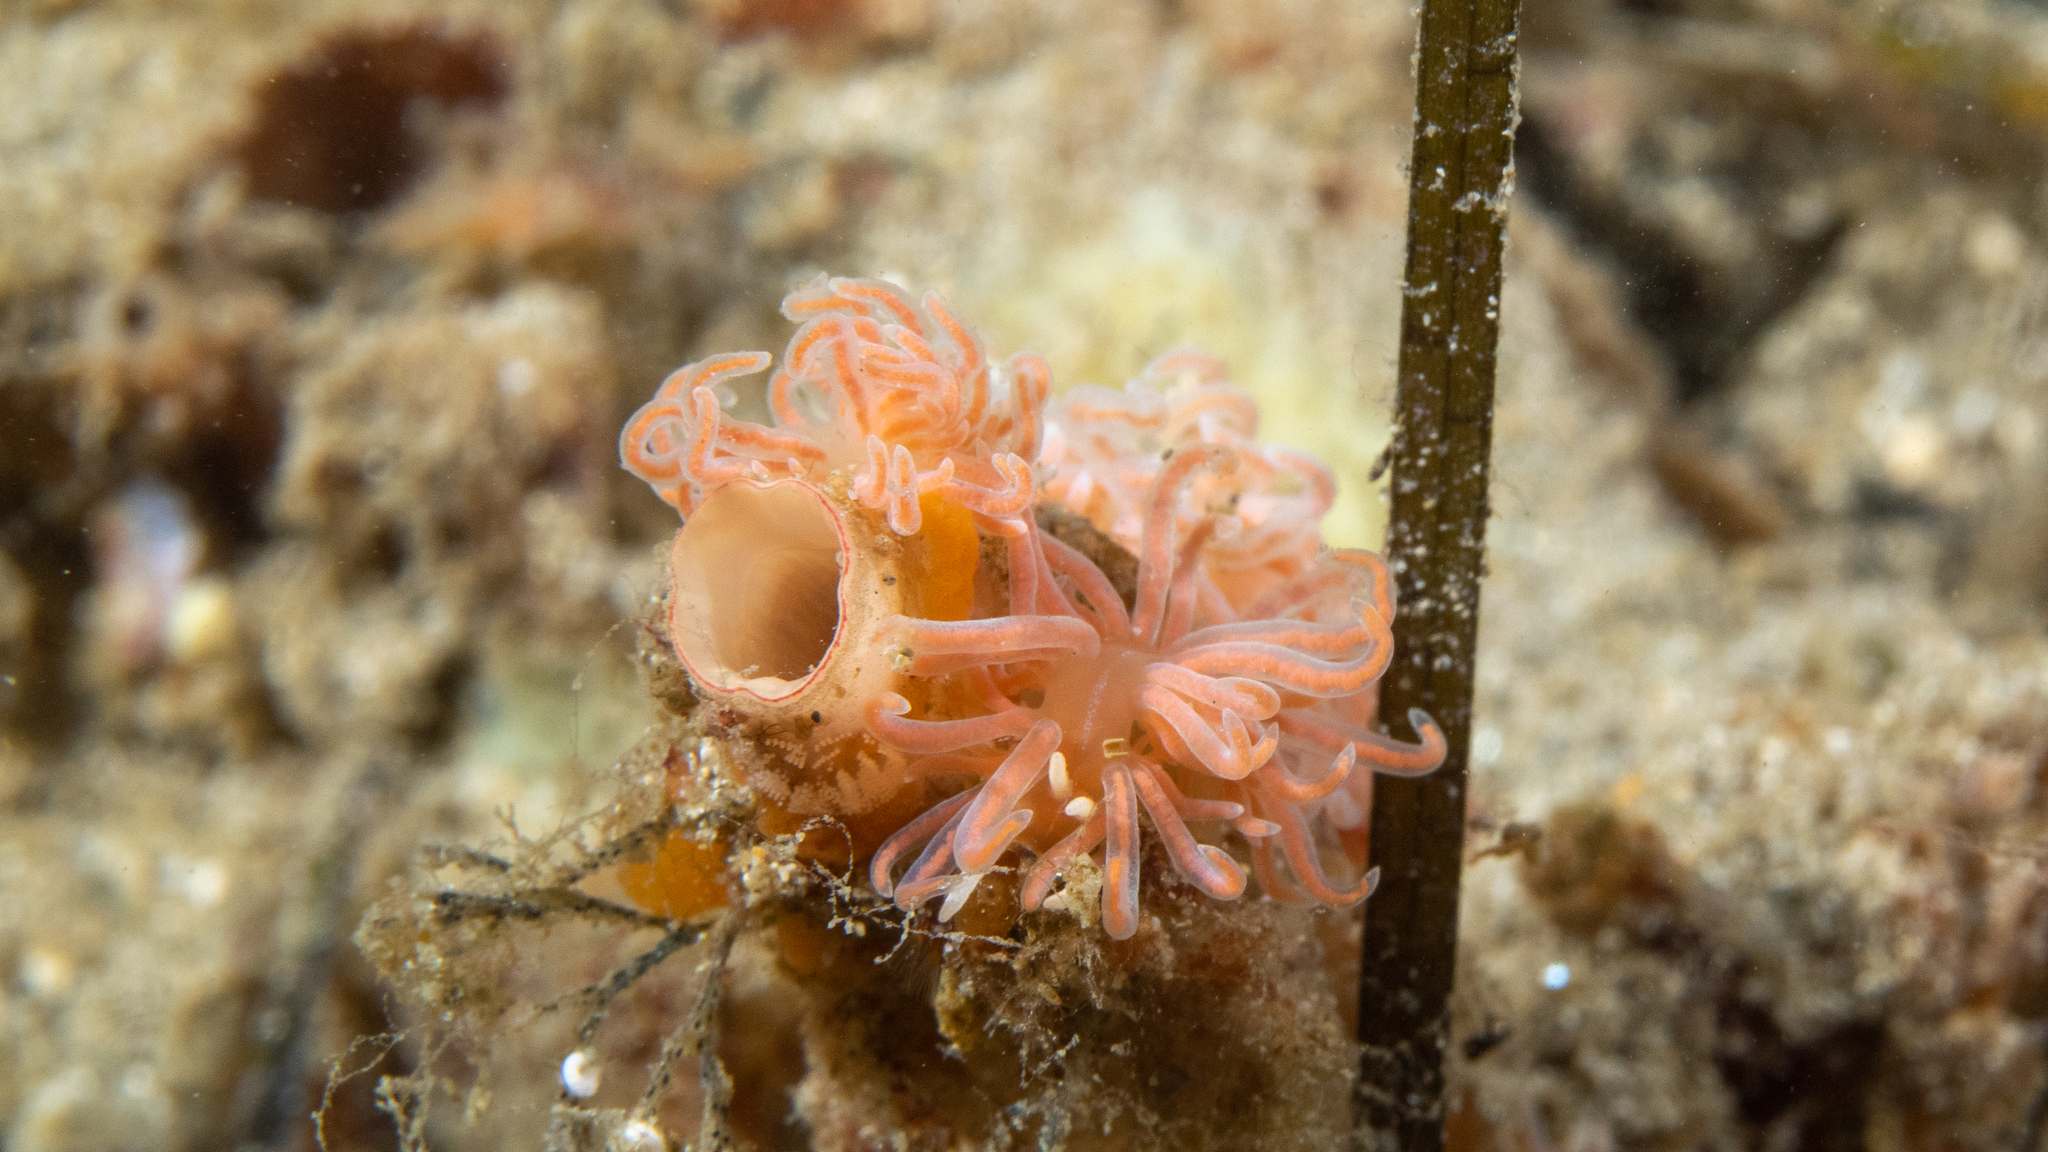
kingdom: Animalia
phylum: Mollusca
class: Gastropoda
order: Nudibranchia
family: Myrrhinidae
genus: Phyllodesmium
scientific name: Phyllodesmium serratum
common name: Coral nudibranch
